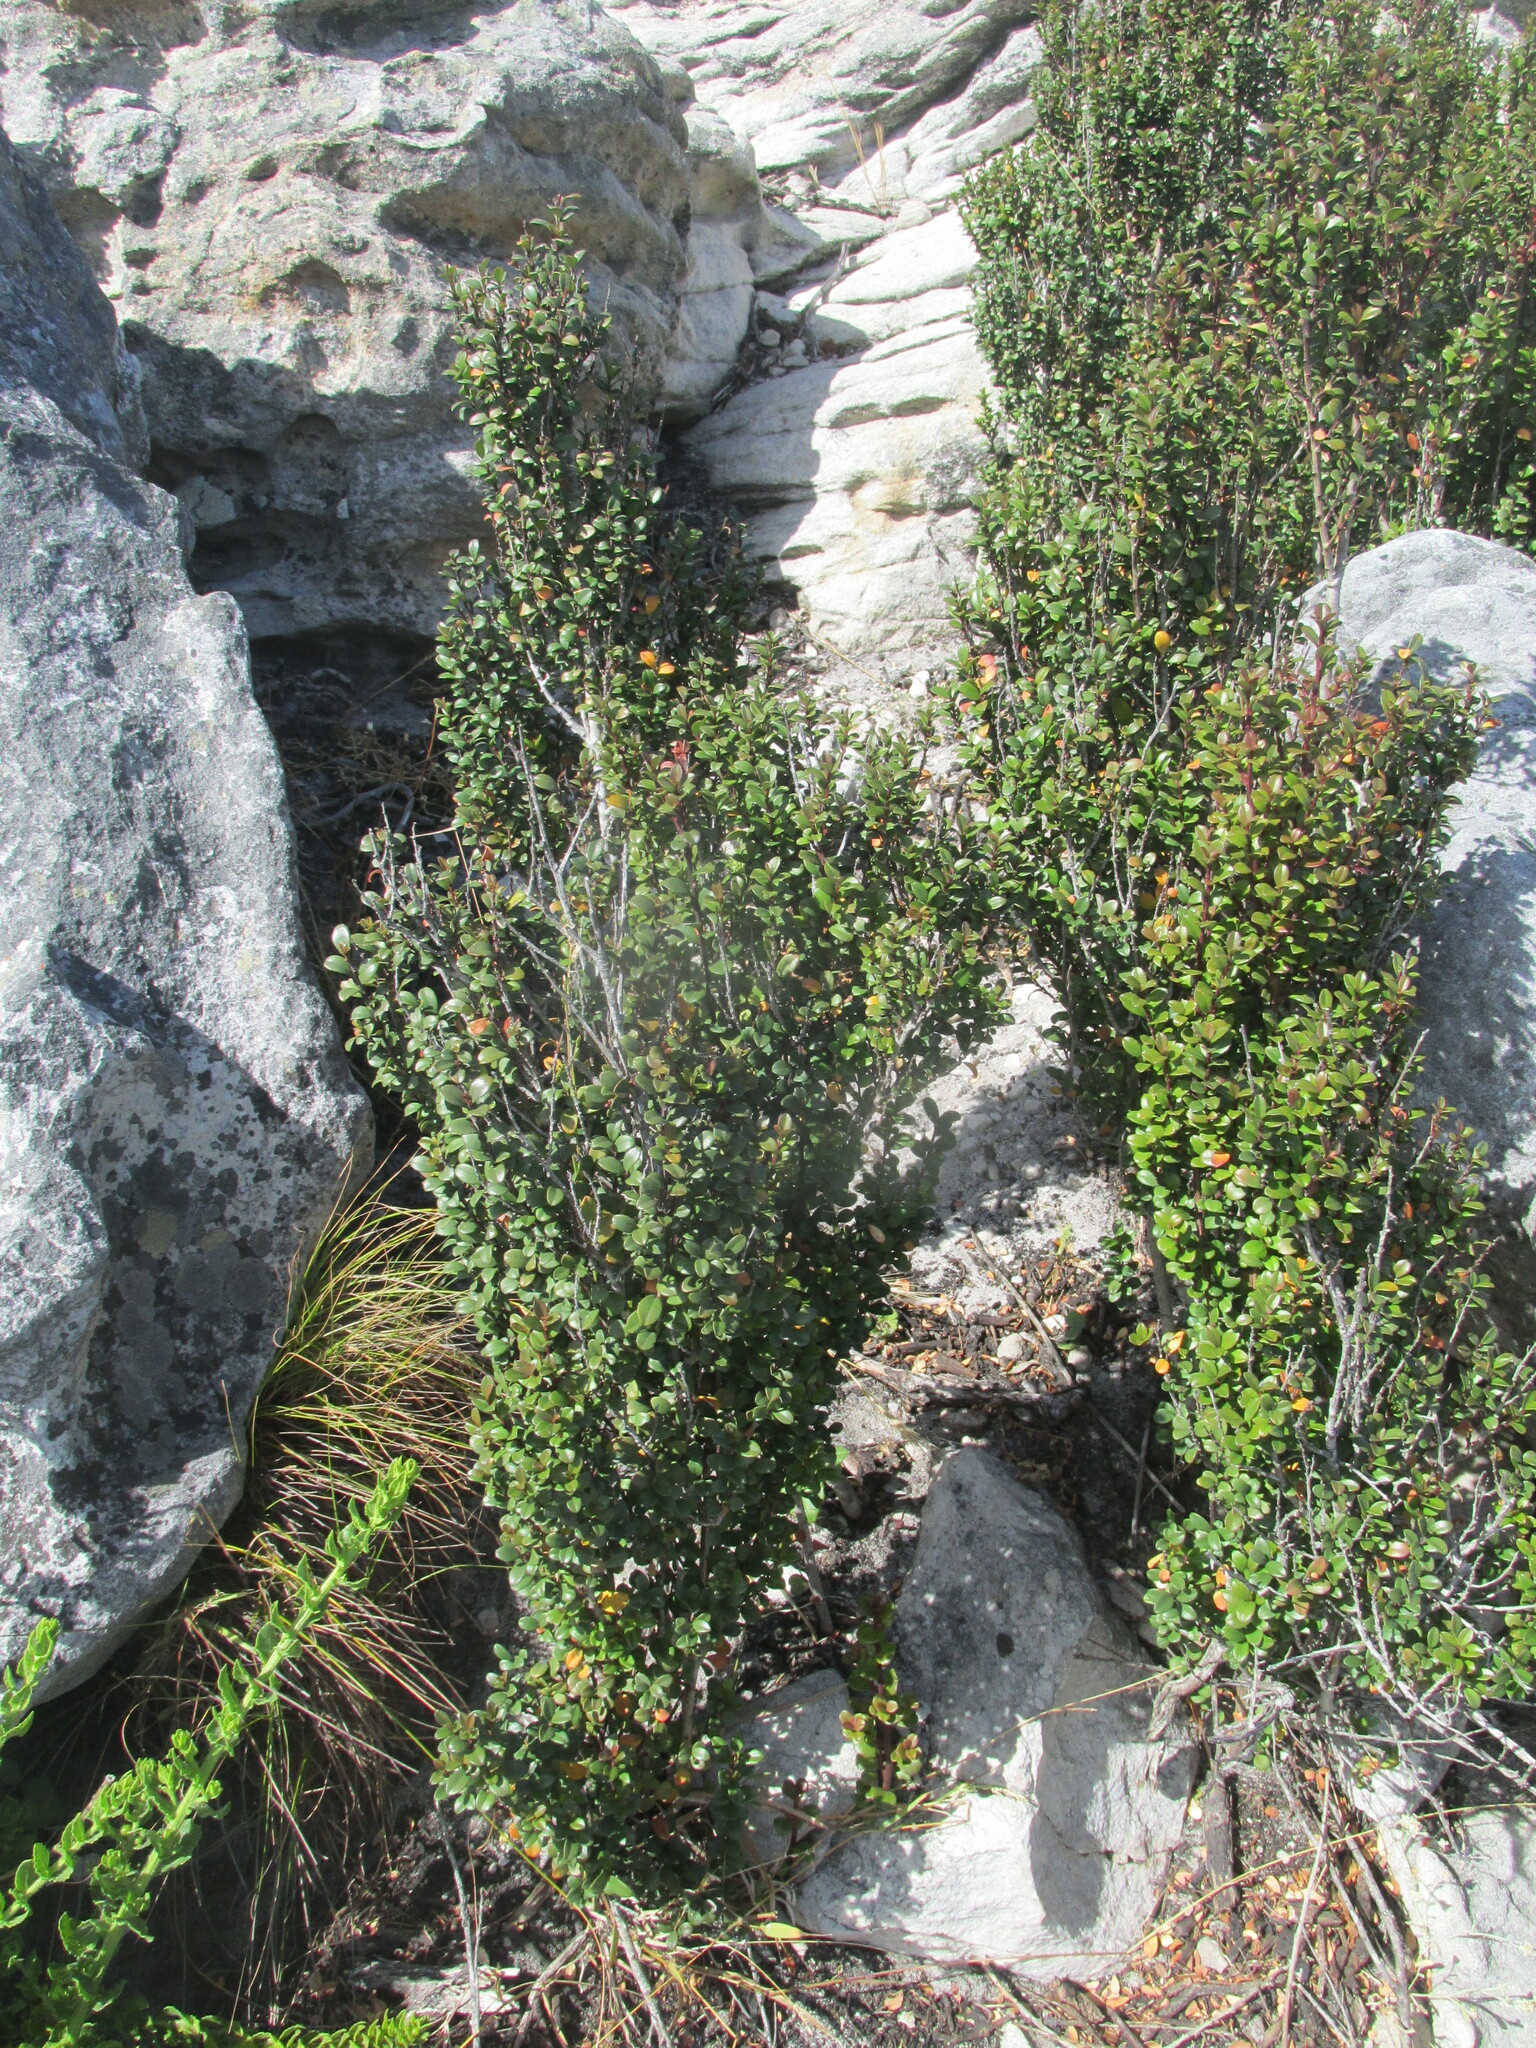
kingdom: Plantae
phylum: Tracheophyta
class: Magnoliopsida
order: Ericales
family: Primulaceae
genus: Myrsine
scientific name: Myrsine africana
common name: African-boxwood
